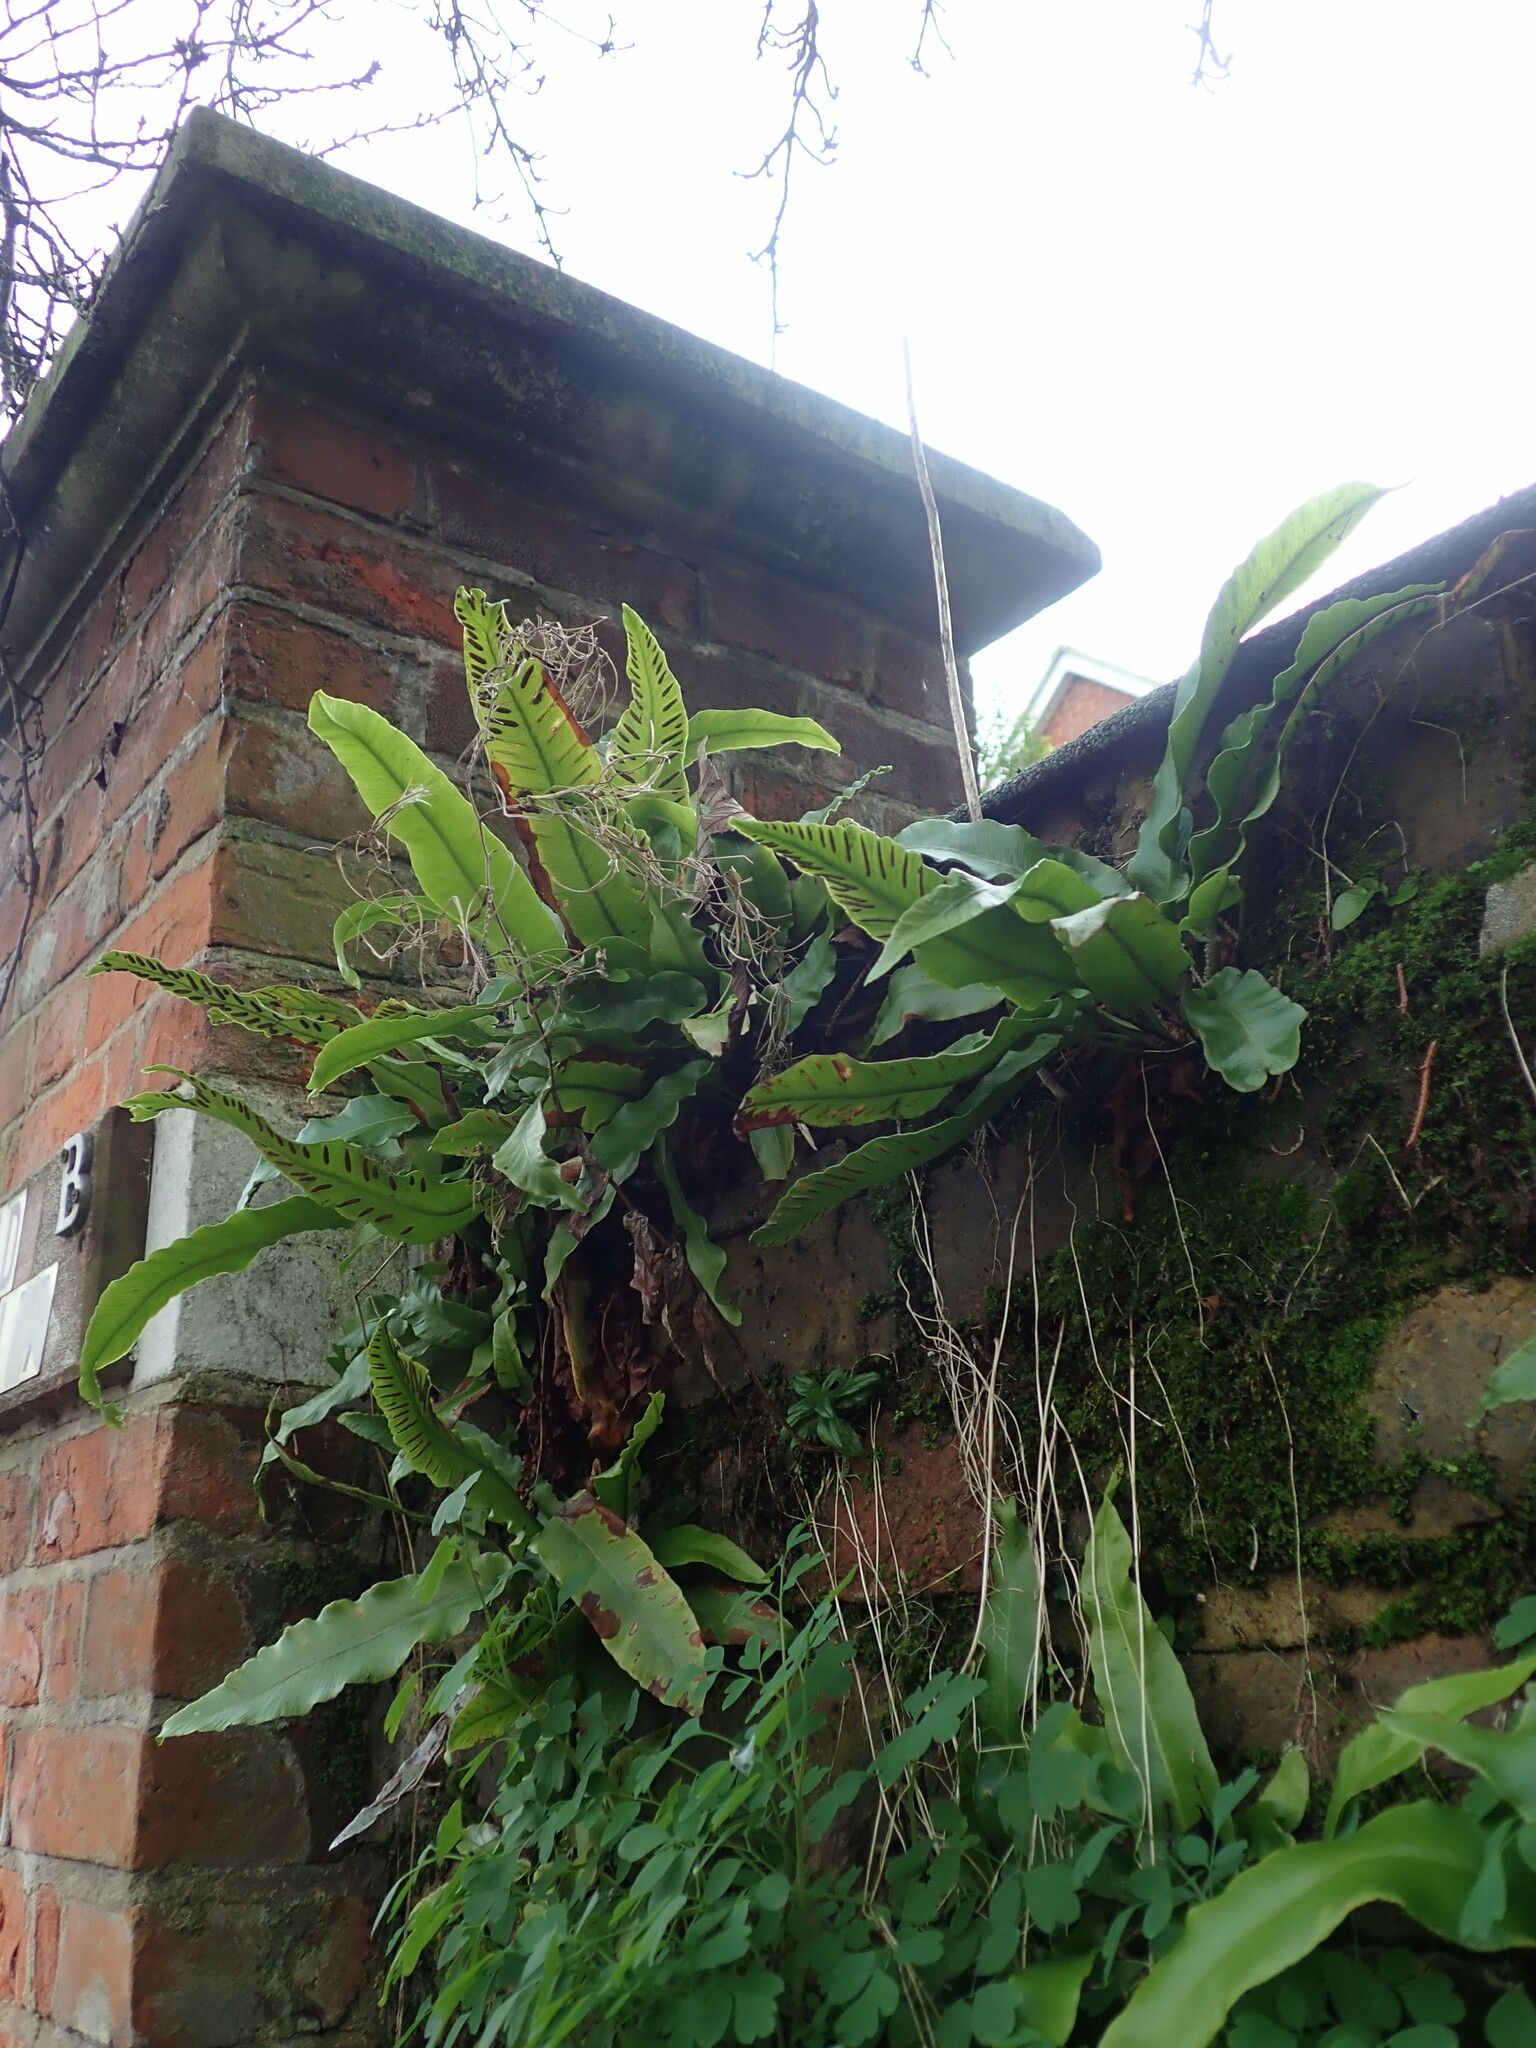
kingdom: Plantae
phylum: Tracheophyta
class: Polypodiopsida
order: Polypodiales
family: Aspleniaceae
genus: Asplenium
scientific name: Asplenium scolopendrium
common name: Hart's-tongue fern
